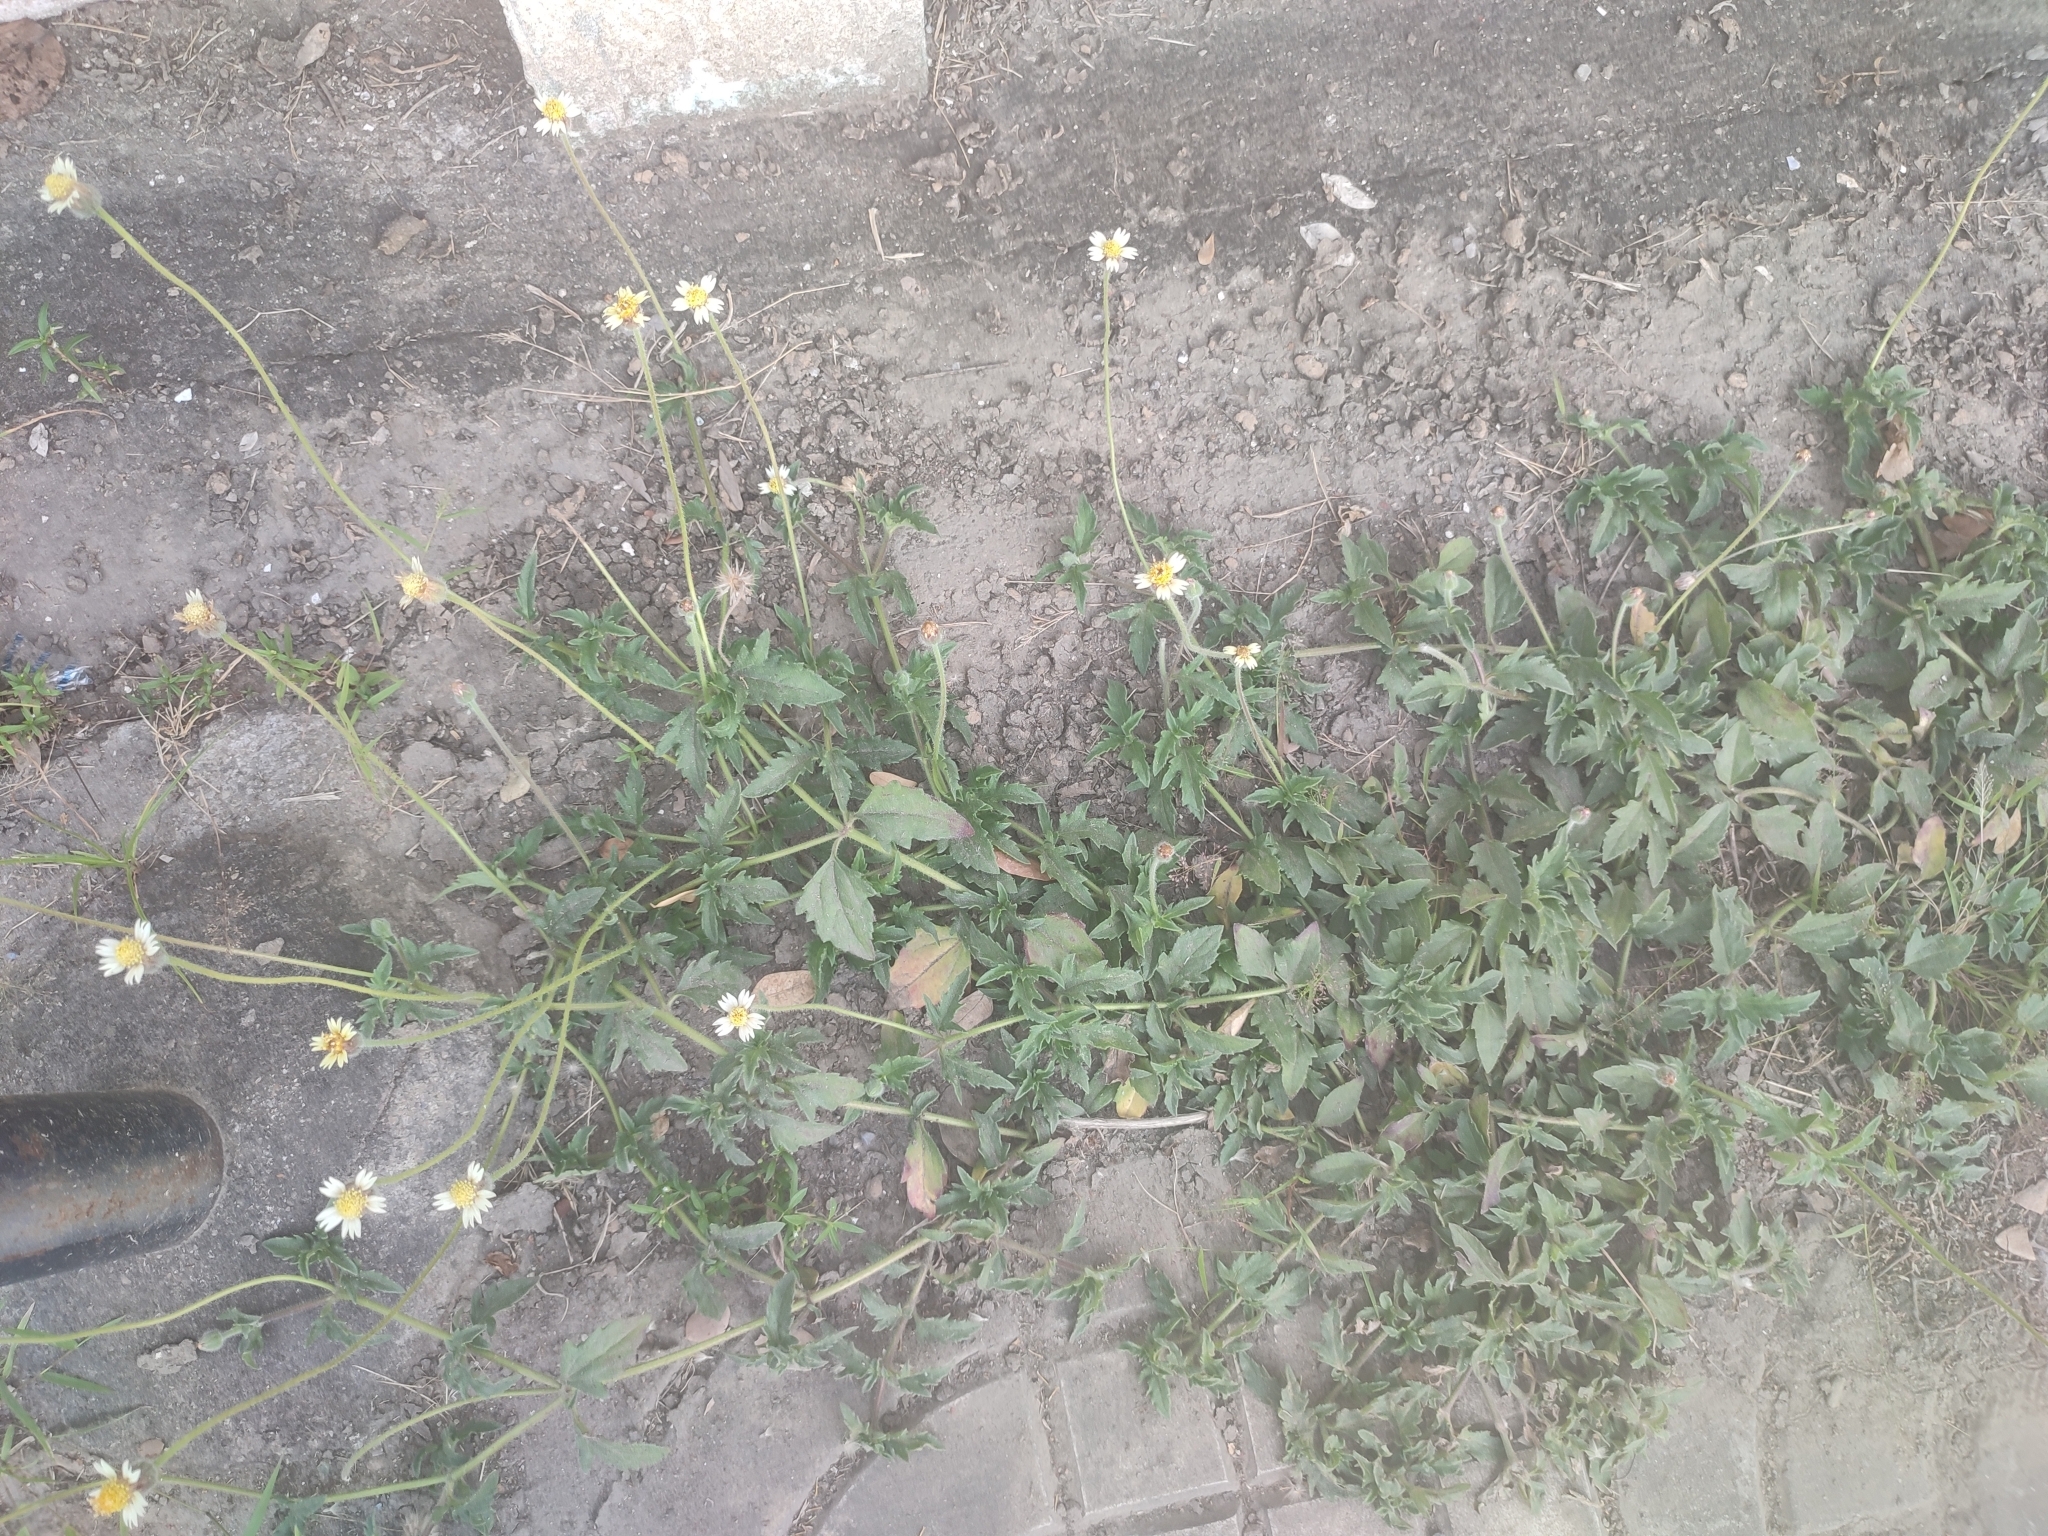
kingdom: Plantae
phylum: Tracheophyta
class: Magnoliopsida
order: Asterales
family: Asteraceae
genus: Tridax
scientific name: Tridax procumbens
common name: Coatbuttons
